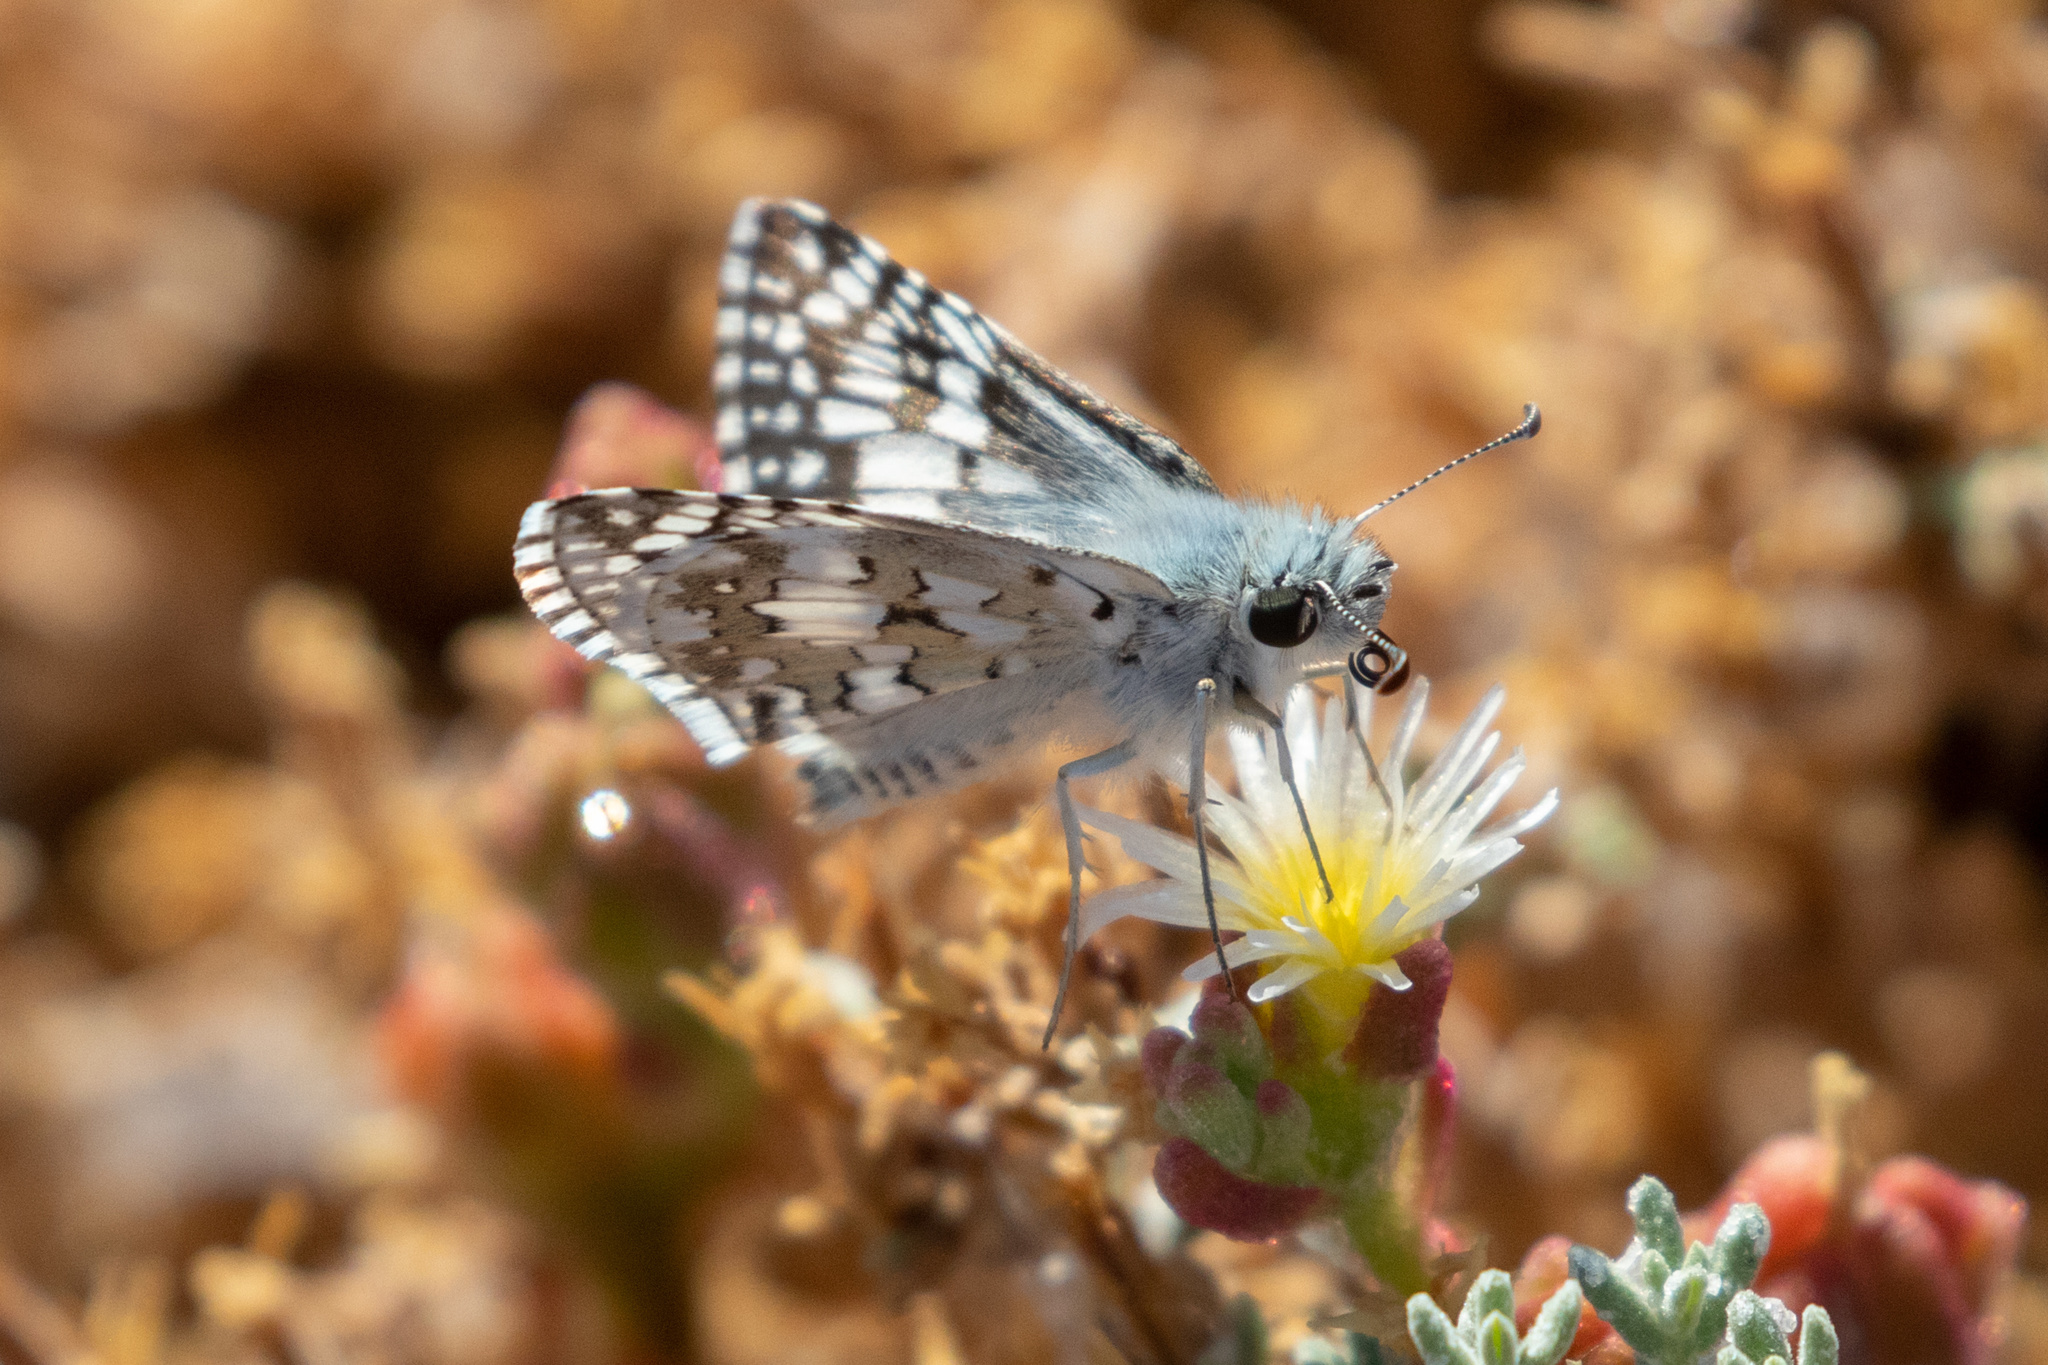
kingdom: Animalia
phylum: Arthropoda
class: Insecta
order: Lepidoptera
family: Hesperiidae
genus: Burnsius
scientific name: Burnsius communis
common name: Common checkered-skipper
